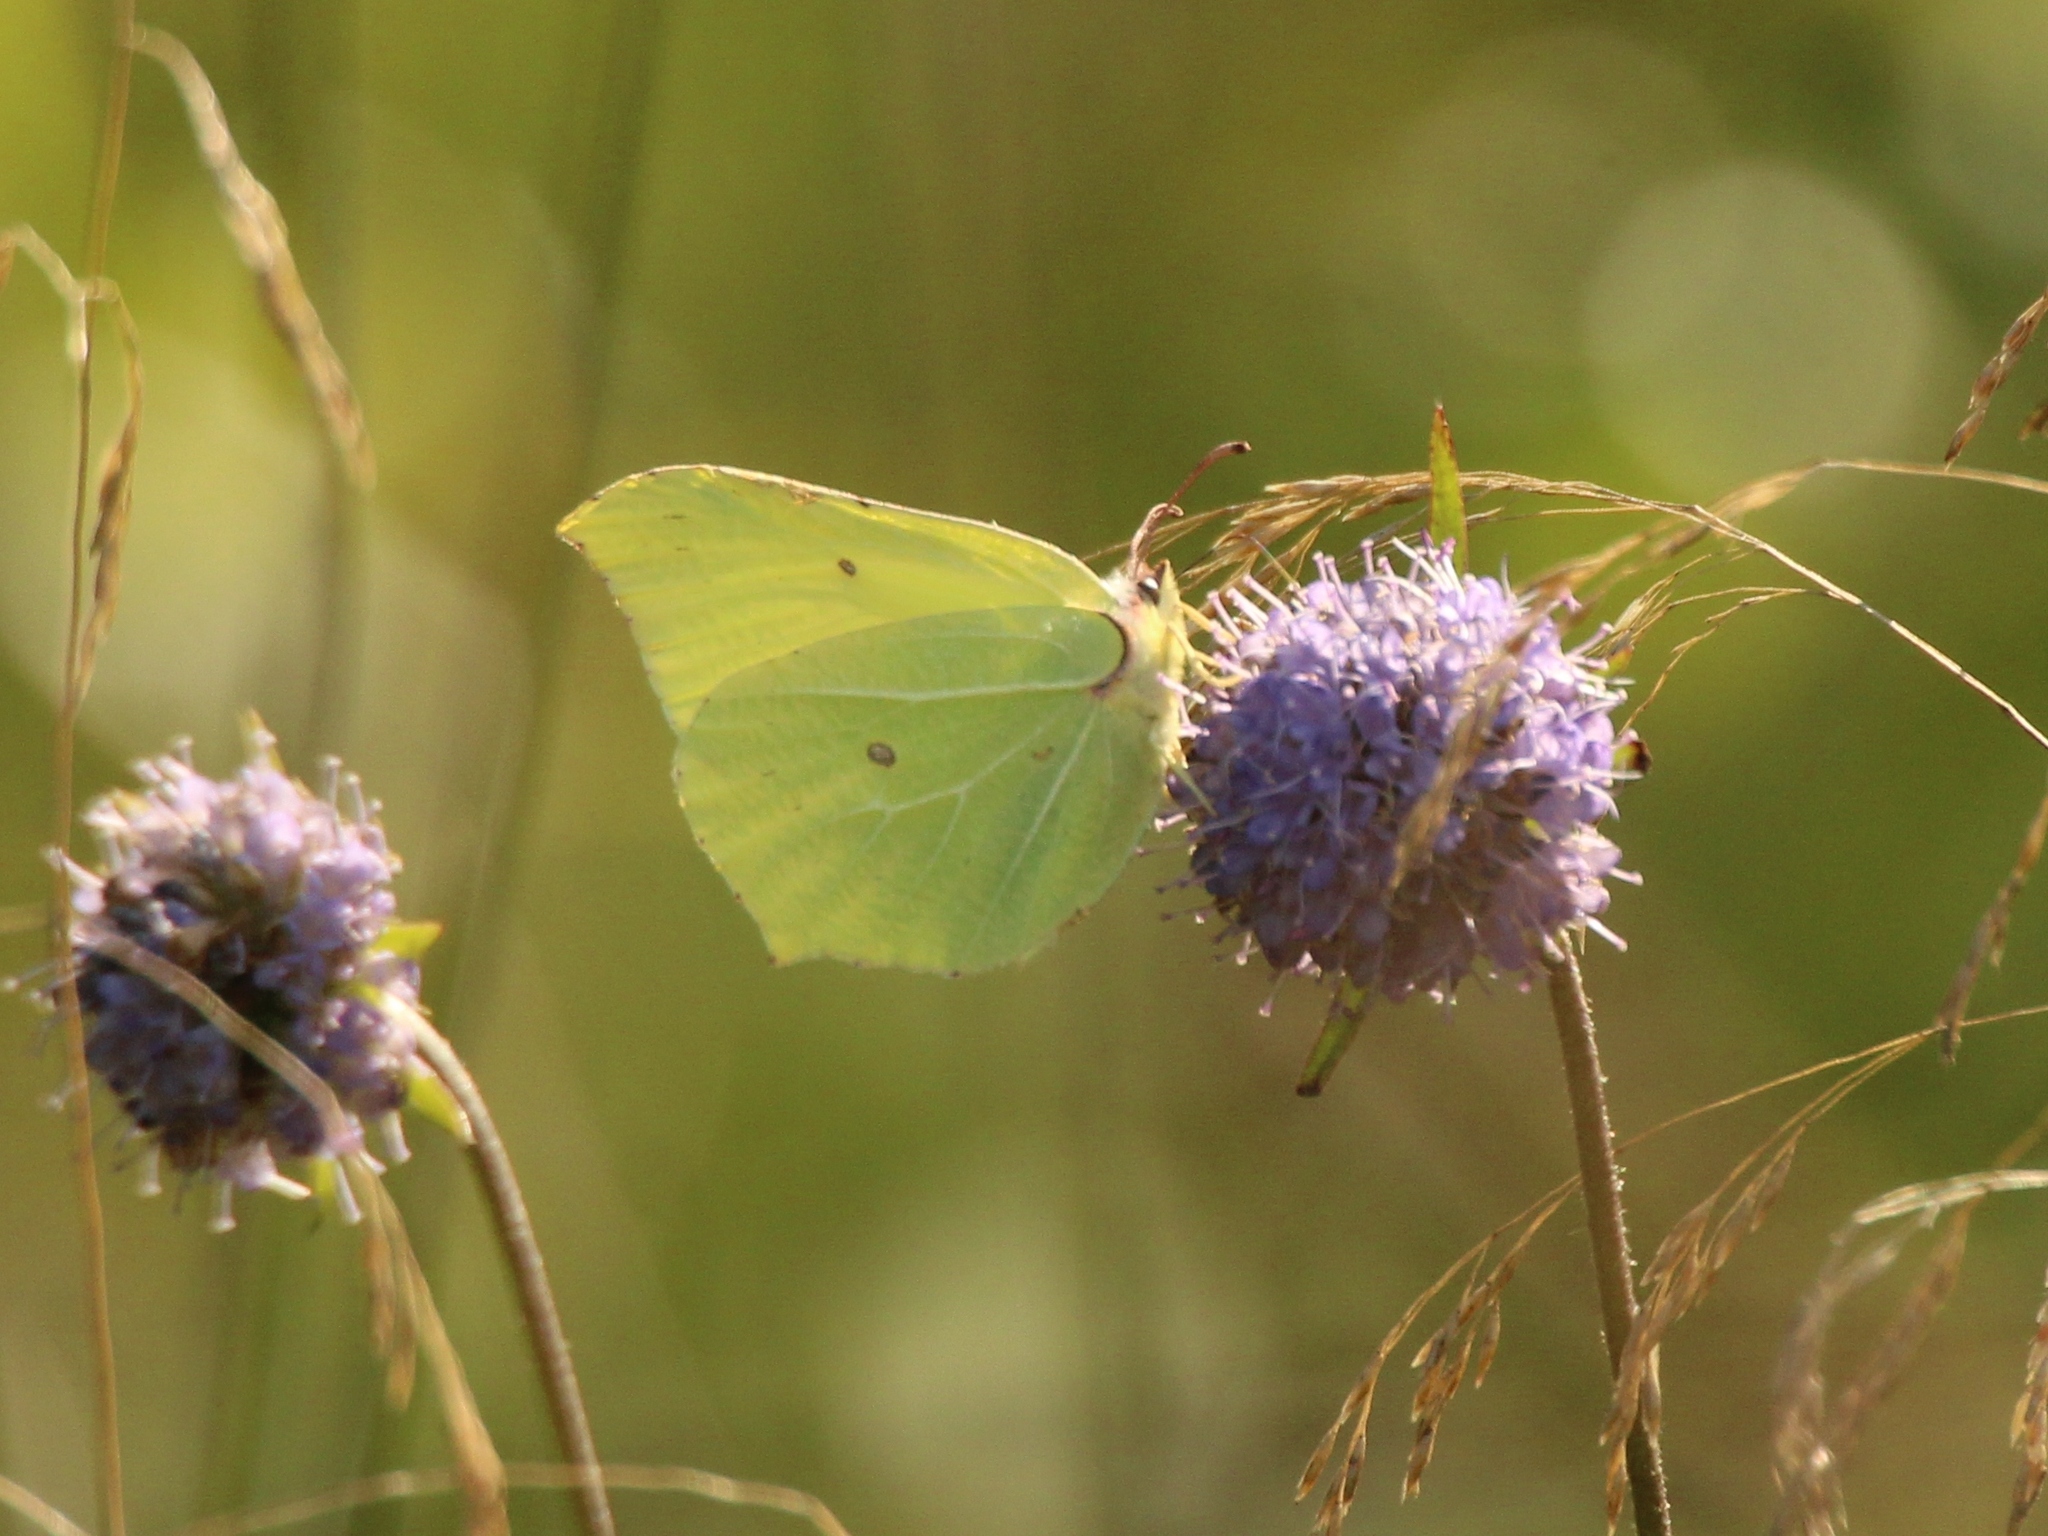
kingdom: Animalia
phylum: Arthropoda
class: Insecta
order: Lepidoptera
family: Pieridae
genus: Gonepteryx
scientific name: Gonepteryx rhamni
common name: Brimstone
